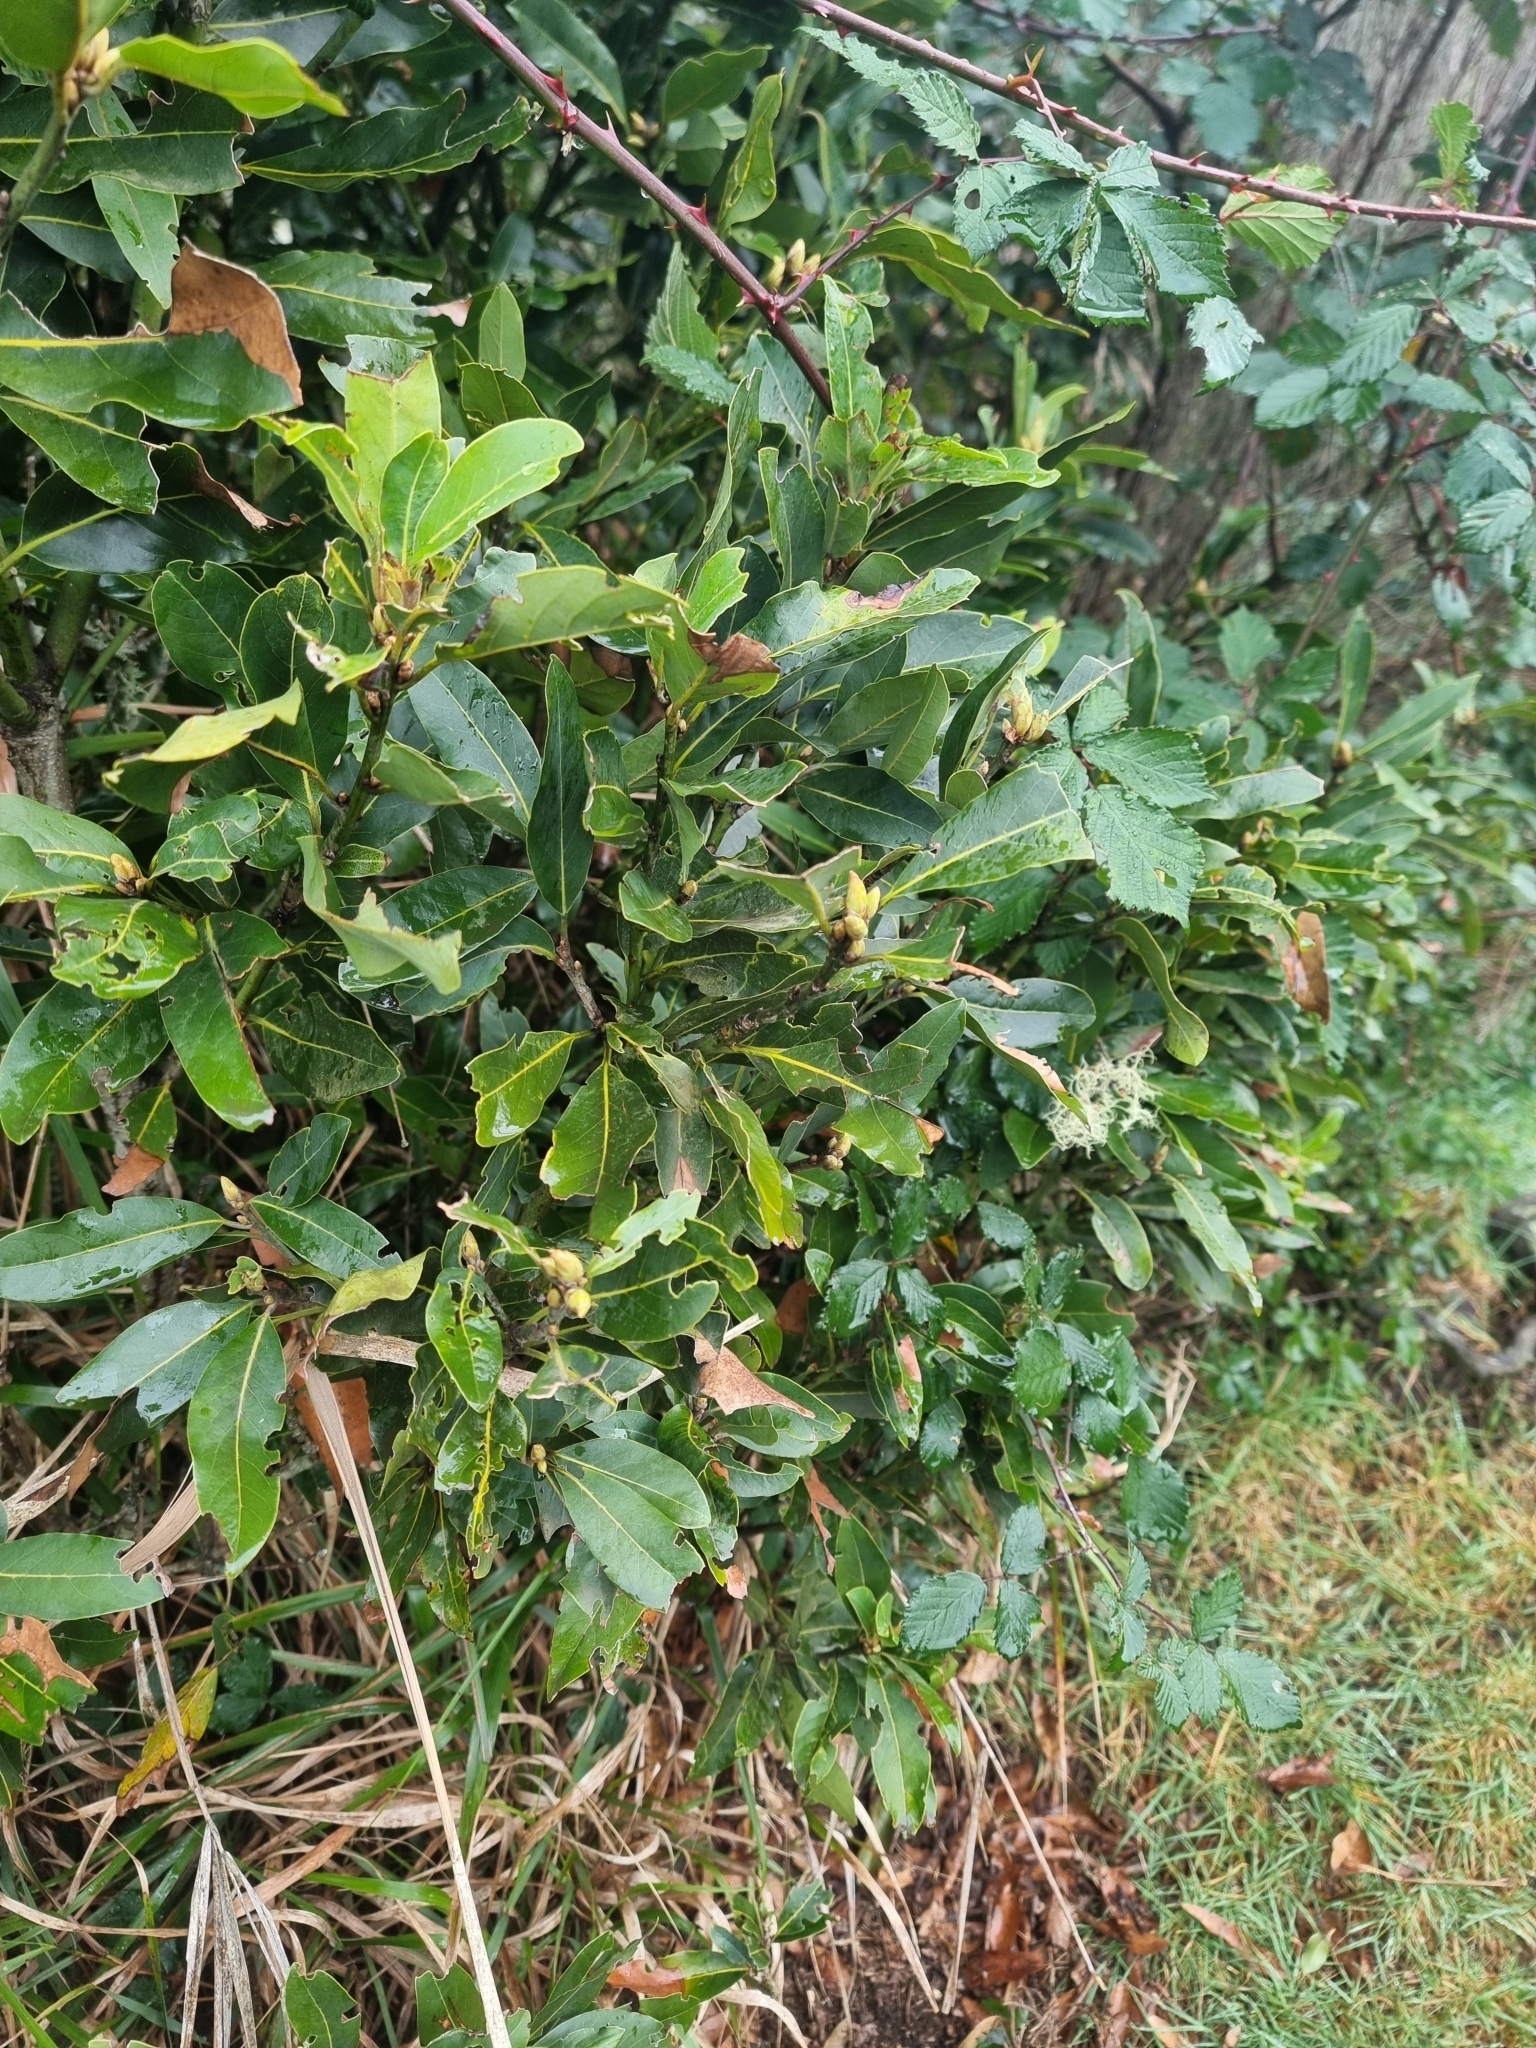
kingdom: Plantae
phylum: Tracheophyta
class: Magnoliopsida
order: Laurales
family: Lauraceae
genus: Laurus
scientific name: Laurus novocanariensis
